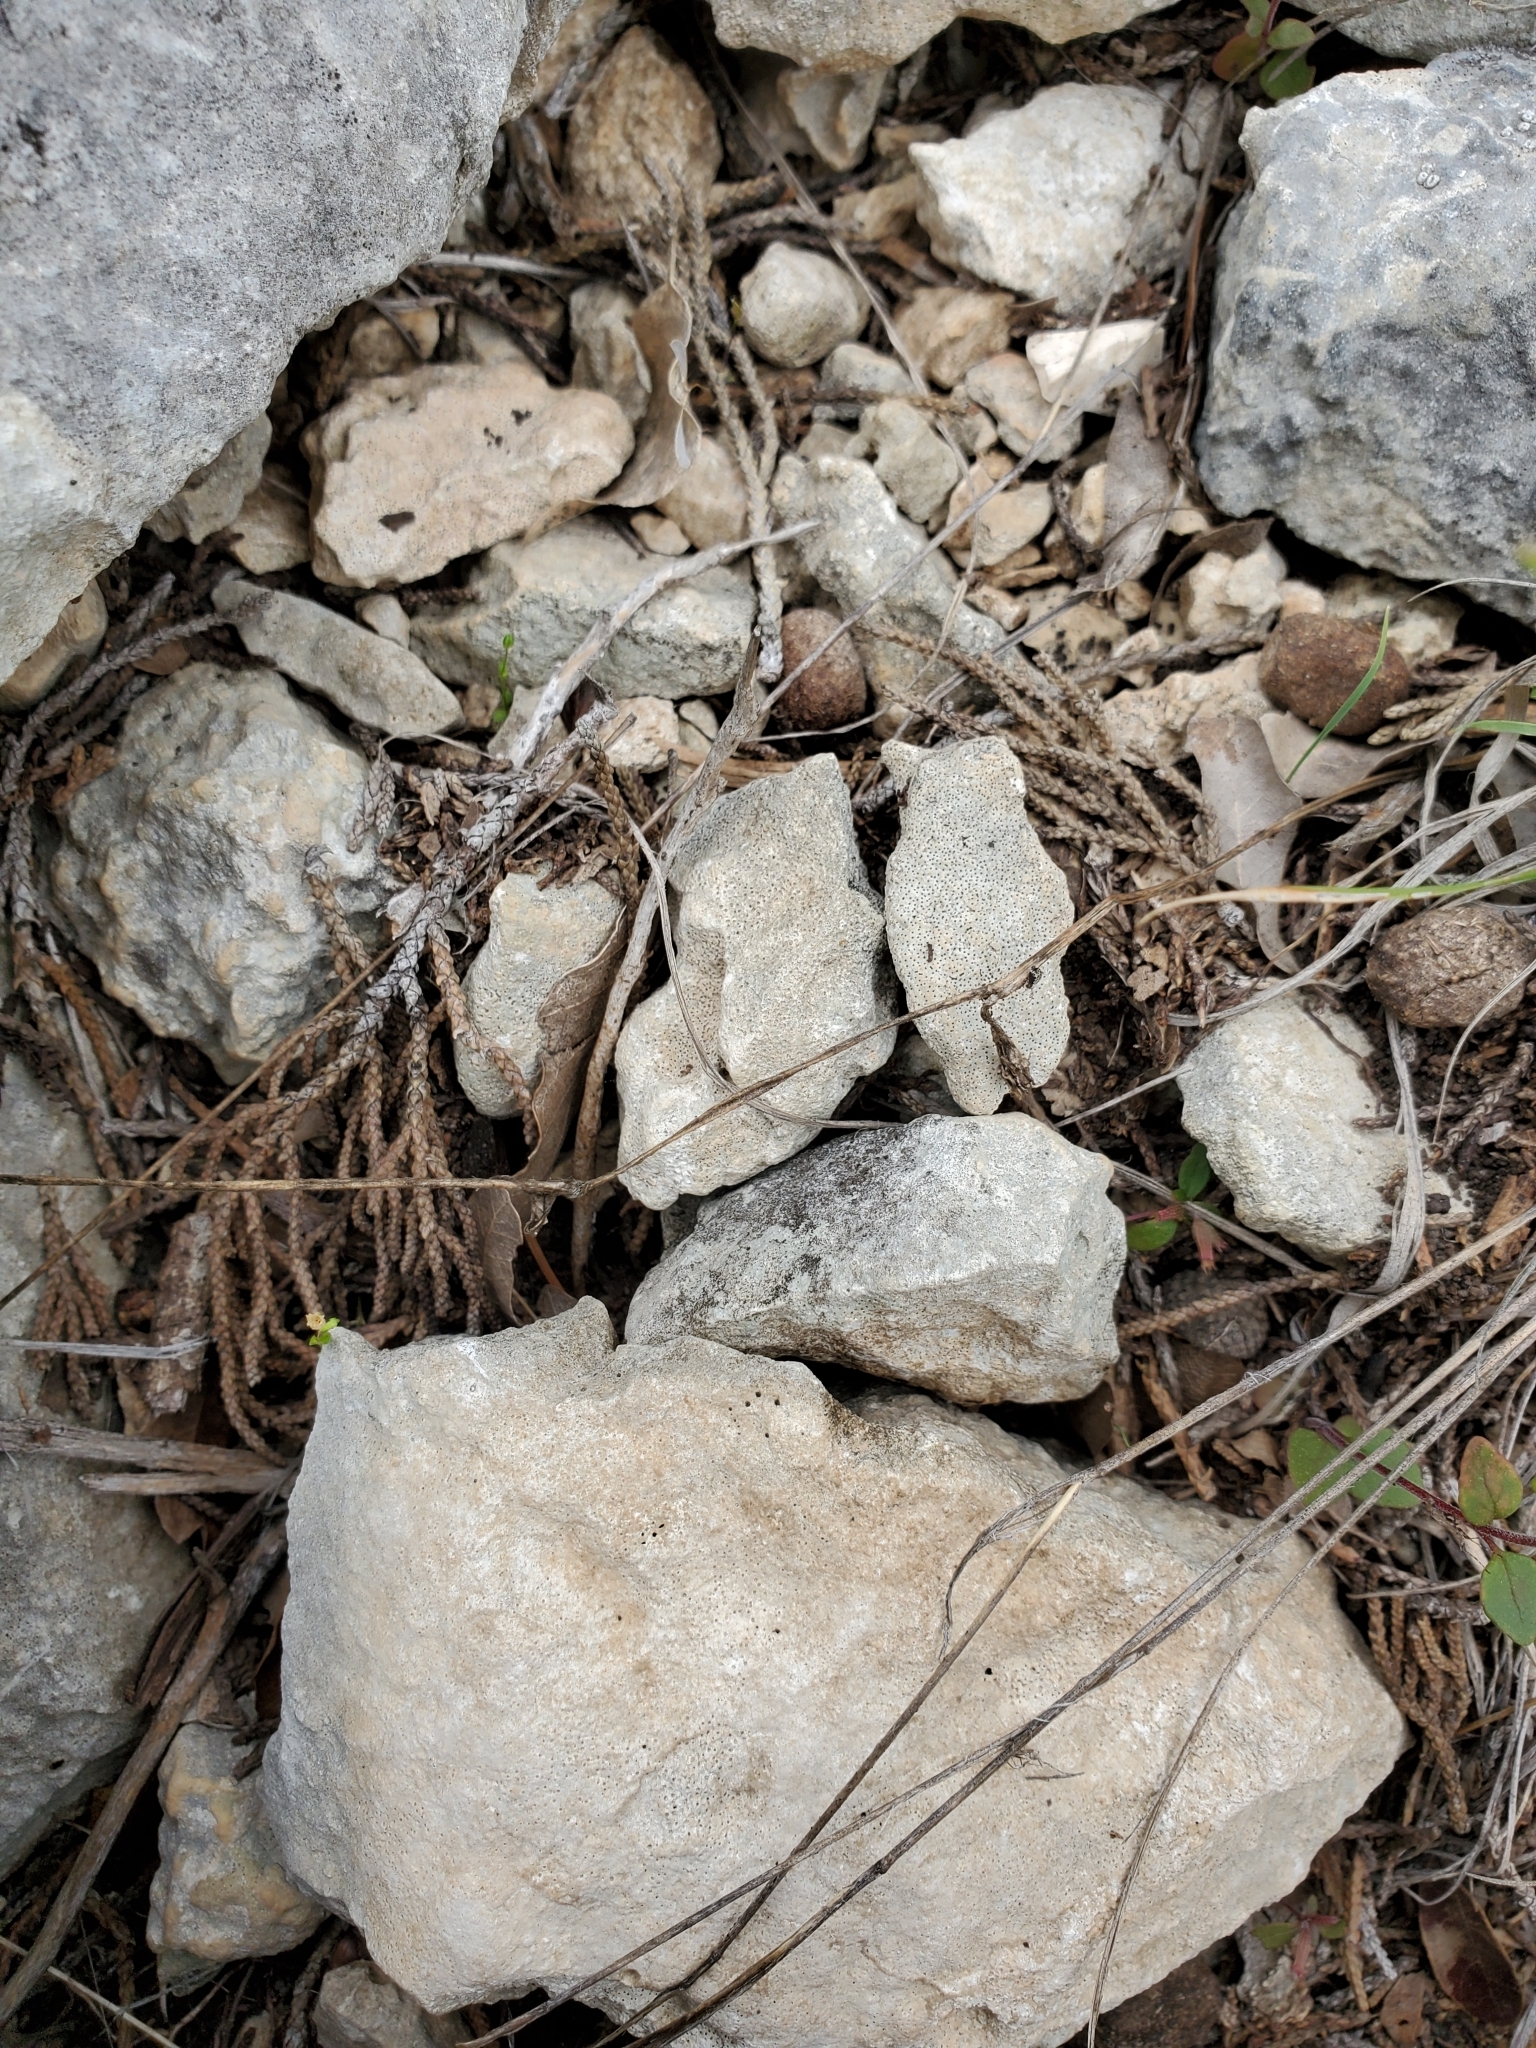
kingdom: Plantae
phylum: Tracheophyta
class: Magnoliopsida
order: Ranunculales
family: Ranunculaceae
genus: Anemone
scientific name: Anemone edwardsiana
